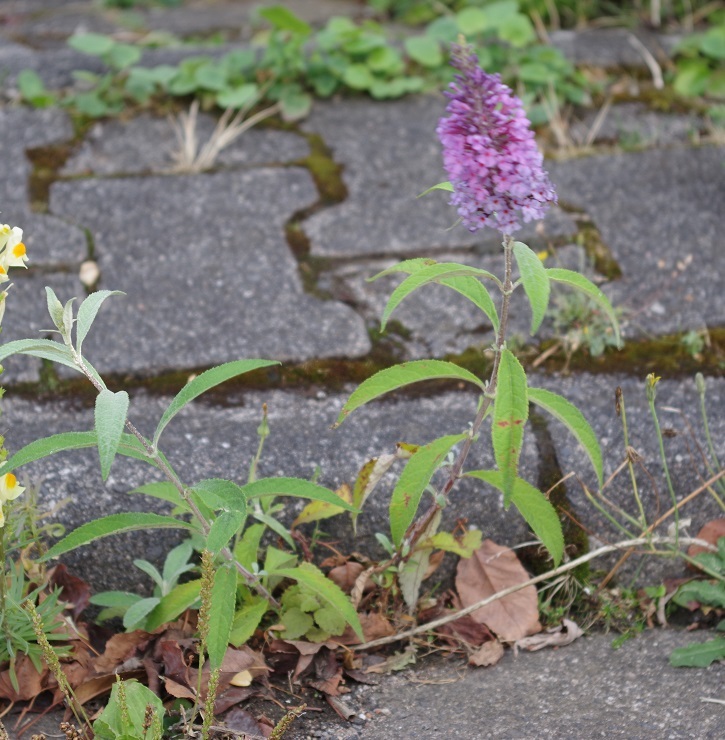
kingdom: Plantae
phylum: Tracheophyta
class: Magnoliopsida
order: Lamiales
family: Scrophulariaceae
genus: Buddleja
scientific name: Buddleja davidii
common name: Butterfly-bush
